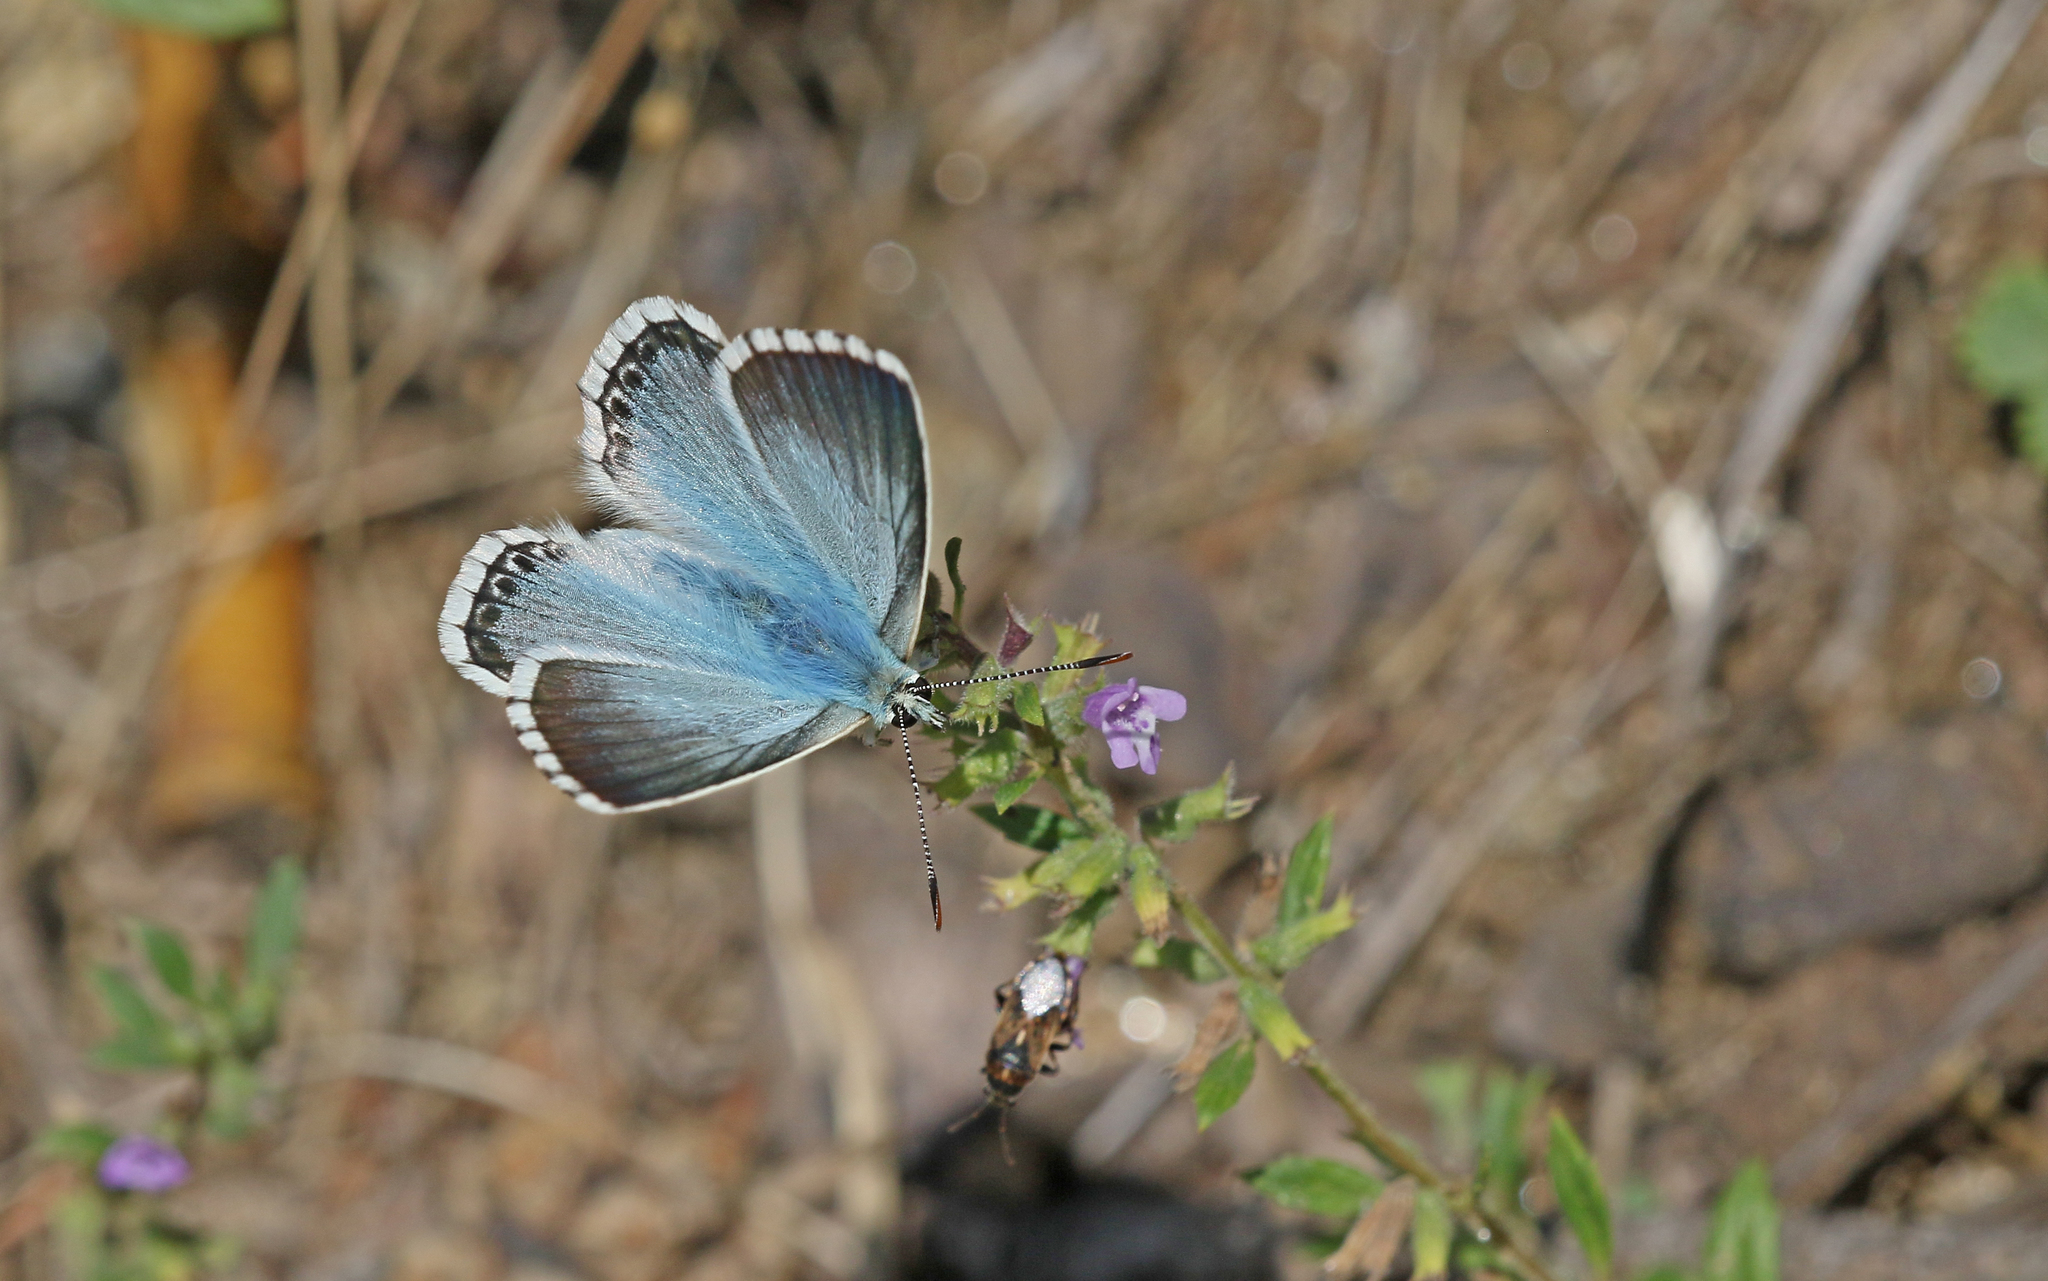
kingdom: Animalia
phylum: Arthropoda
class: Insecta
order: Lepidoptera
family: Lycaenidae
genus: Lysandra
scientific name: Lysandra coridon
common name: Chalkhill blue
